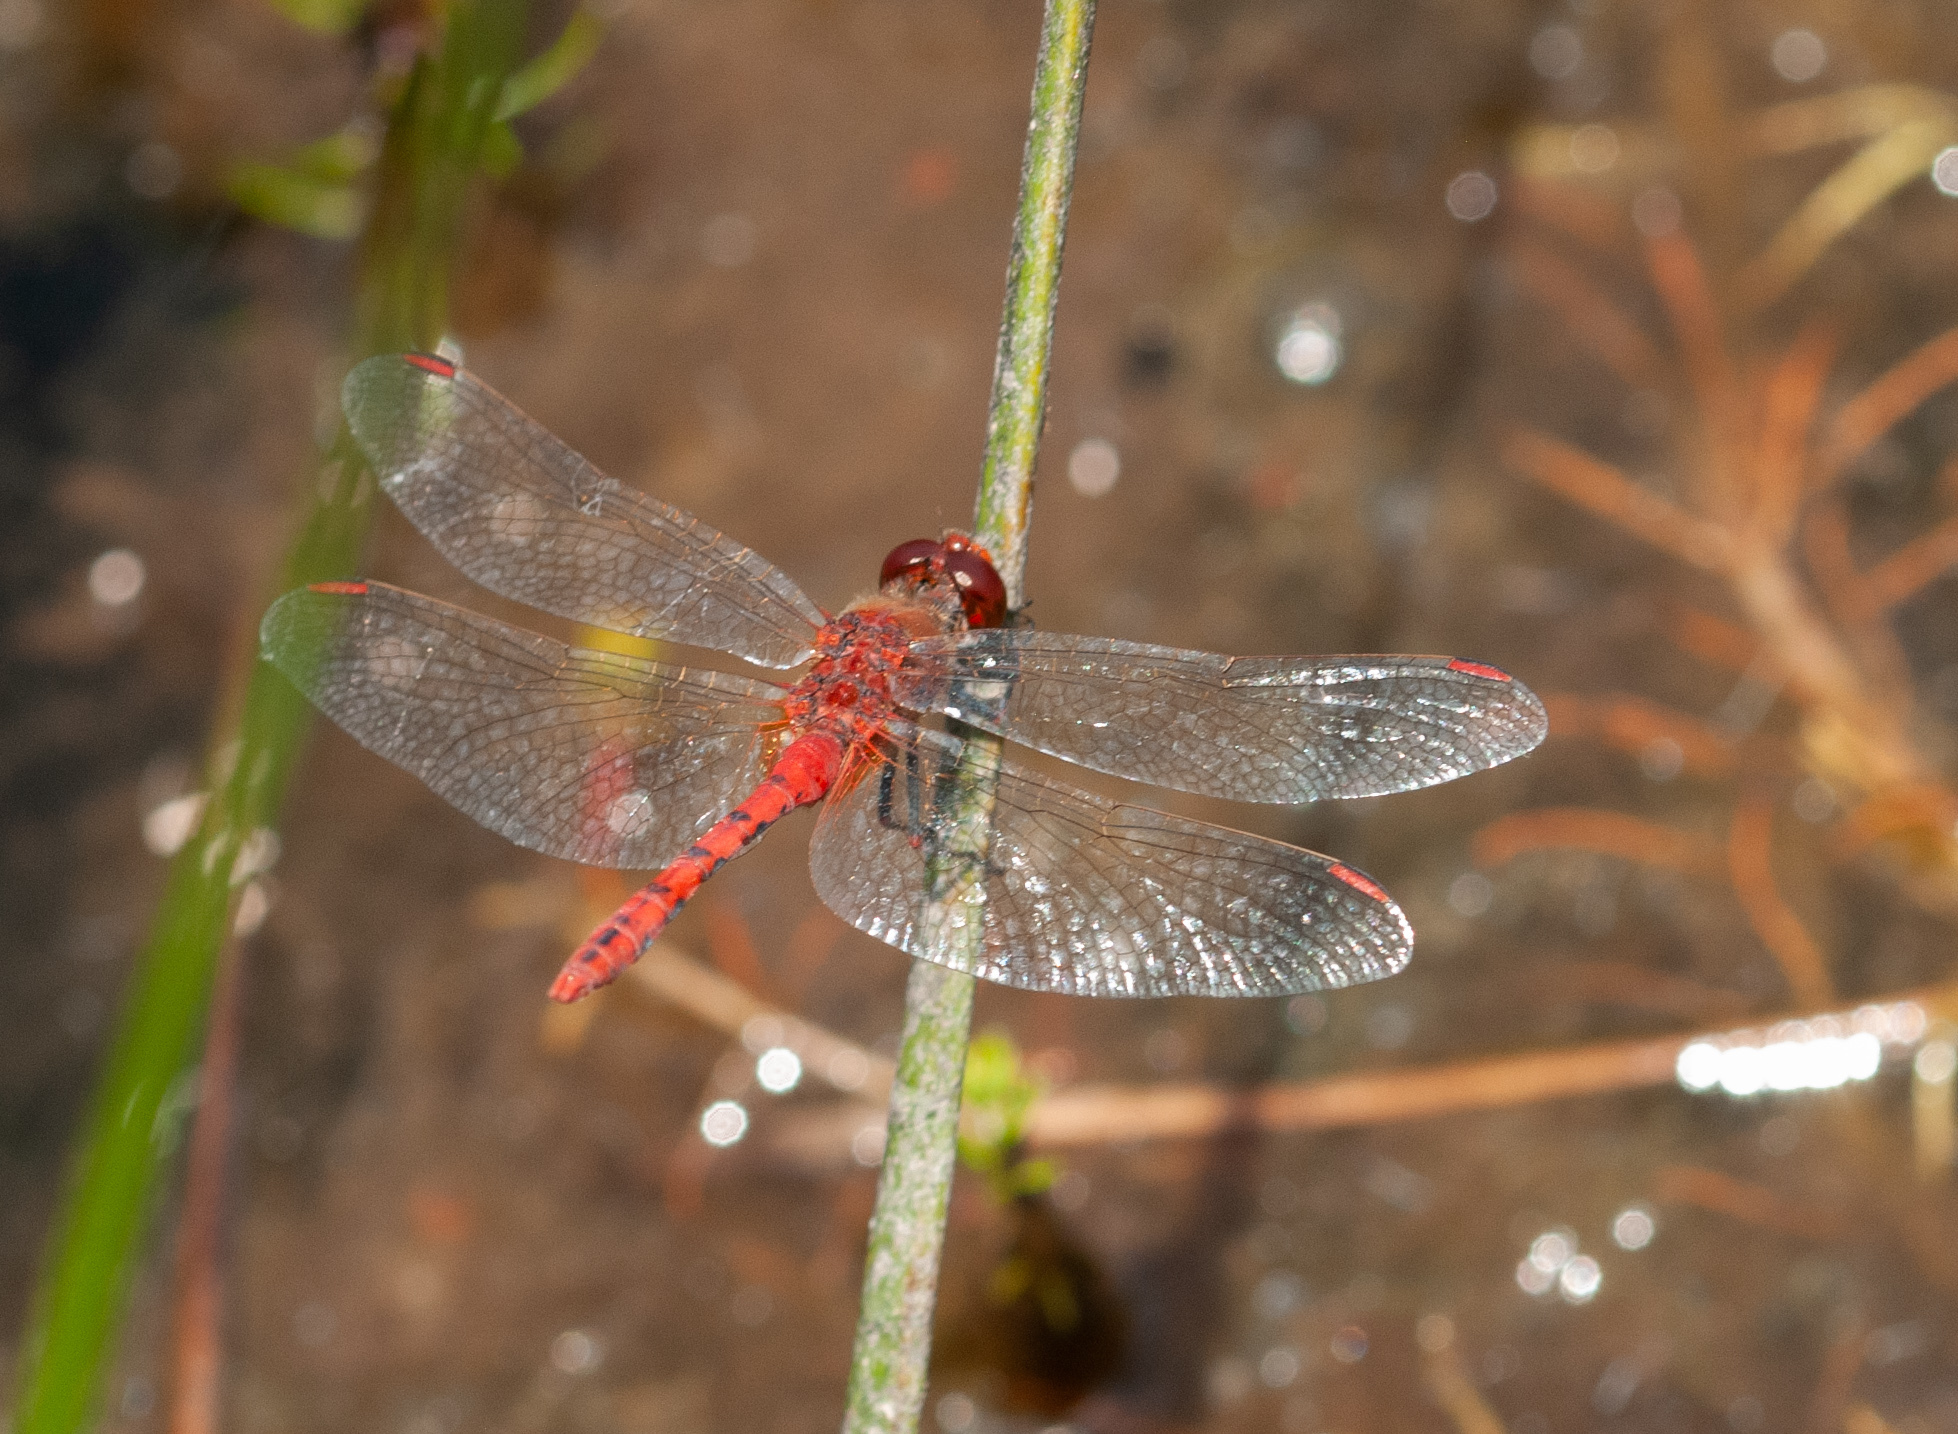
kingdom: Animalia
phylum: Arthropoda
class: Insecta
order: Odonata
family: Libellulidae
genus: Diplacodes
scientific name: Diplacodes bipunctata
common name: Red percher dragonfly
